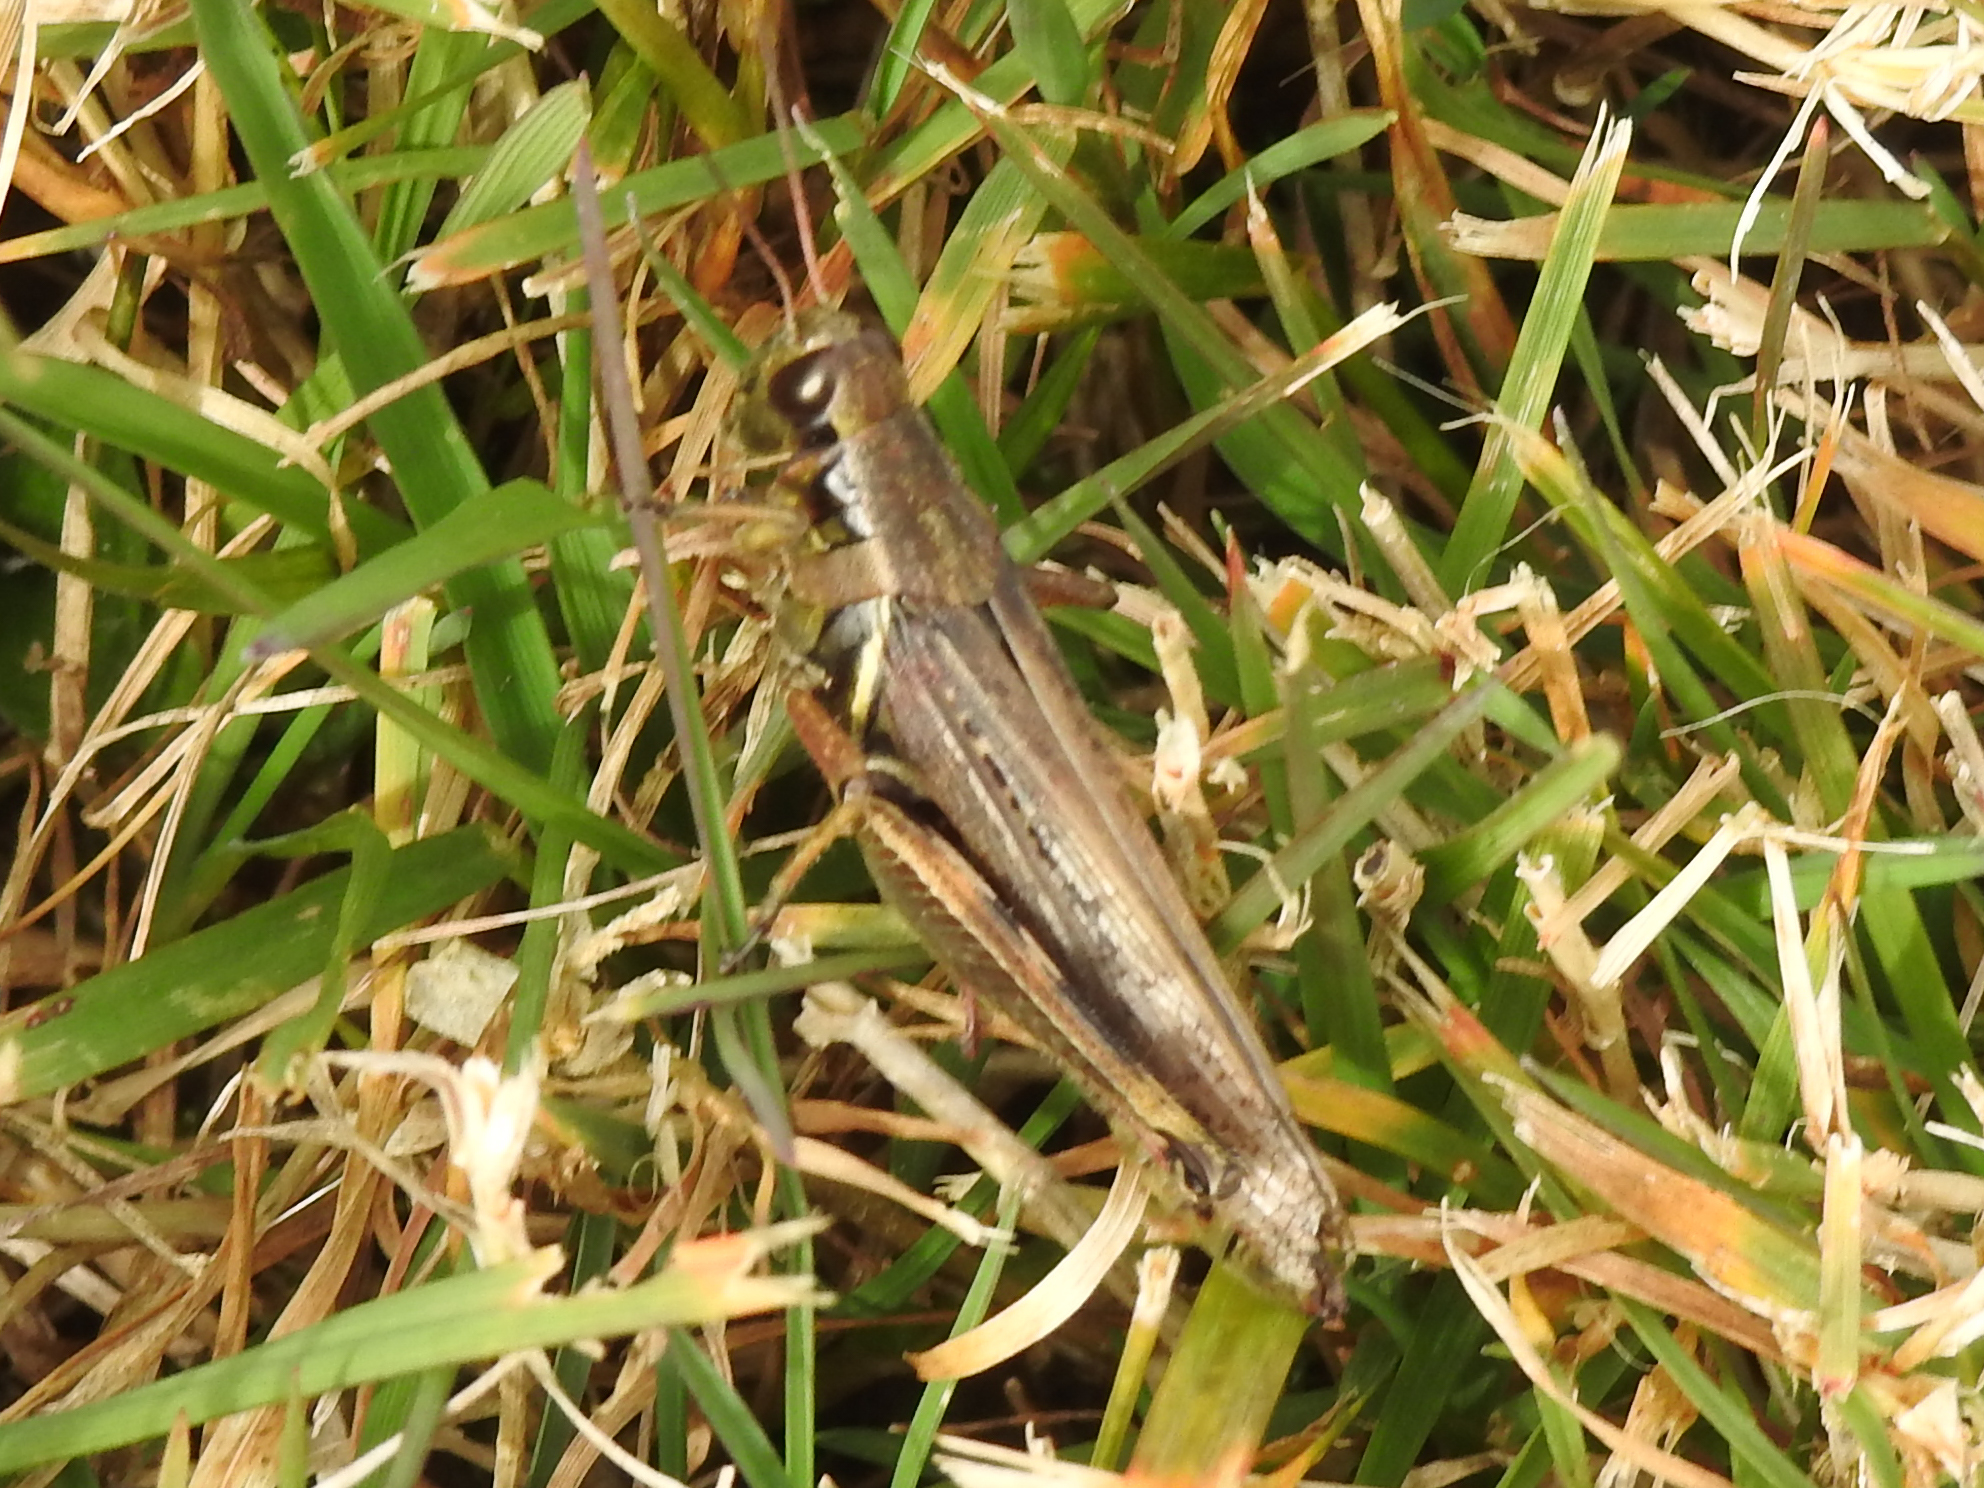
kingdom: Animalia
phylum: Arthropoda
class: Insecta
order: Orthoptera
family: Acrididae
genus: Melanoplus
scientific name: Melanoplus femurrubrum
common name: Red-legged grasshopper
